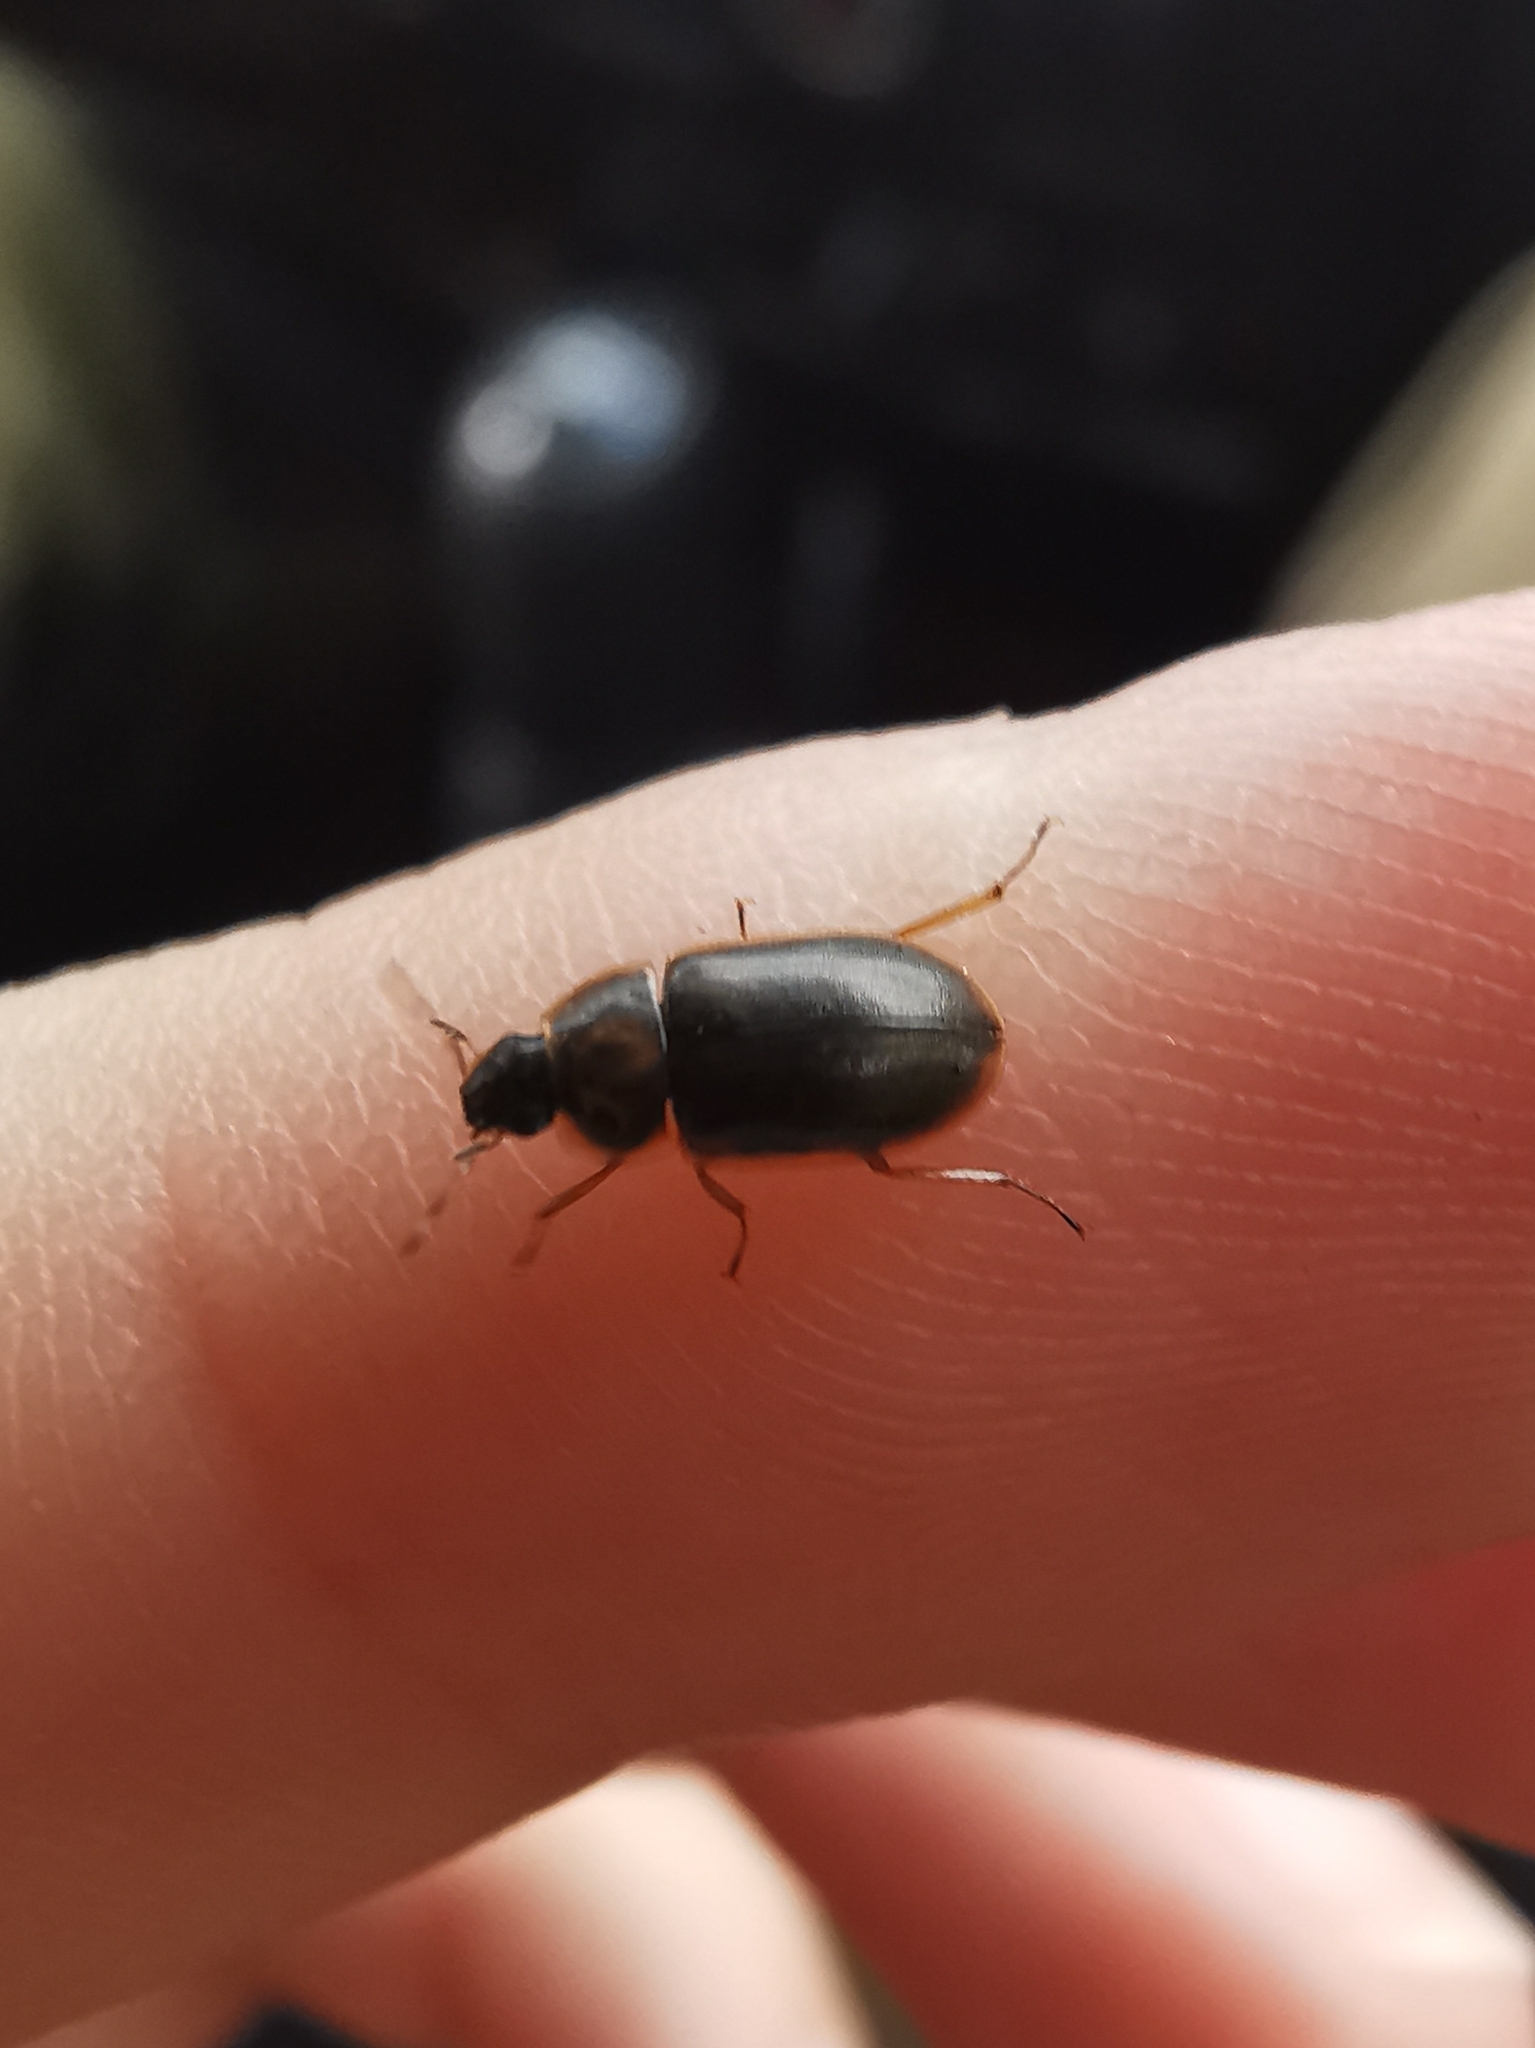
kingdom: Animalia
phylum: Arthropoda
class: Insecta
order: Coleoptera
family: Hydrophilidae
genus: Helochares
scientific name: Helochares obscurus
